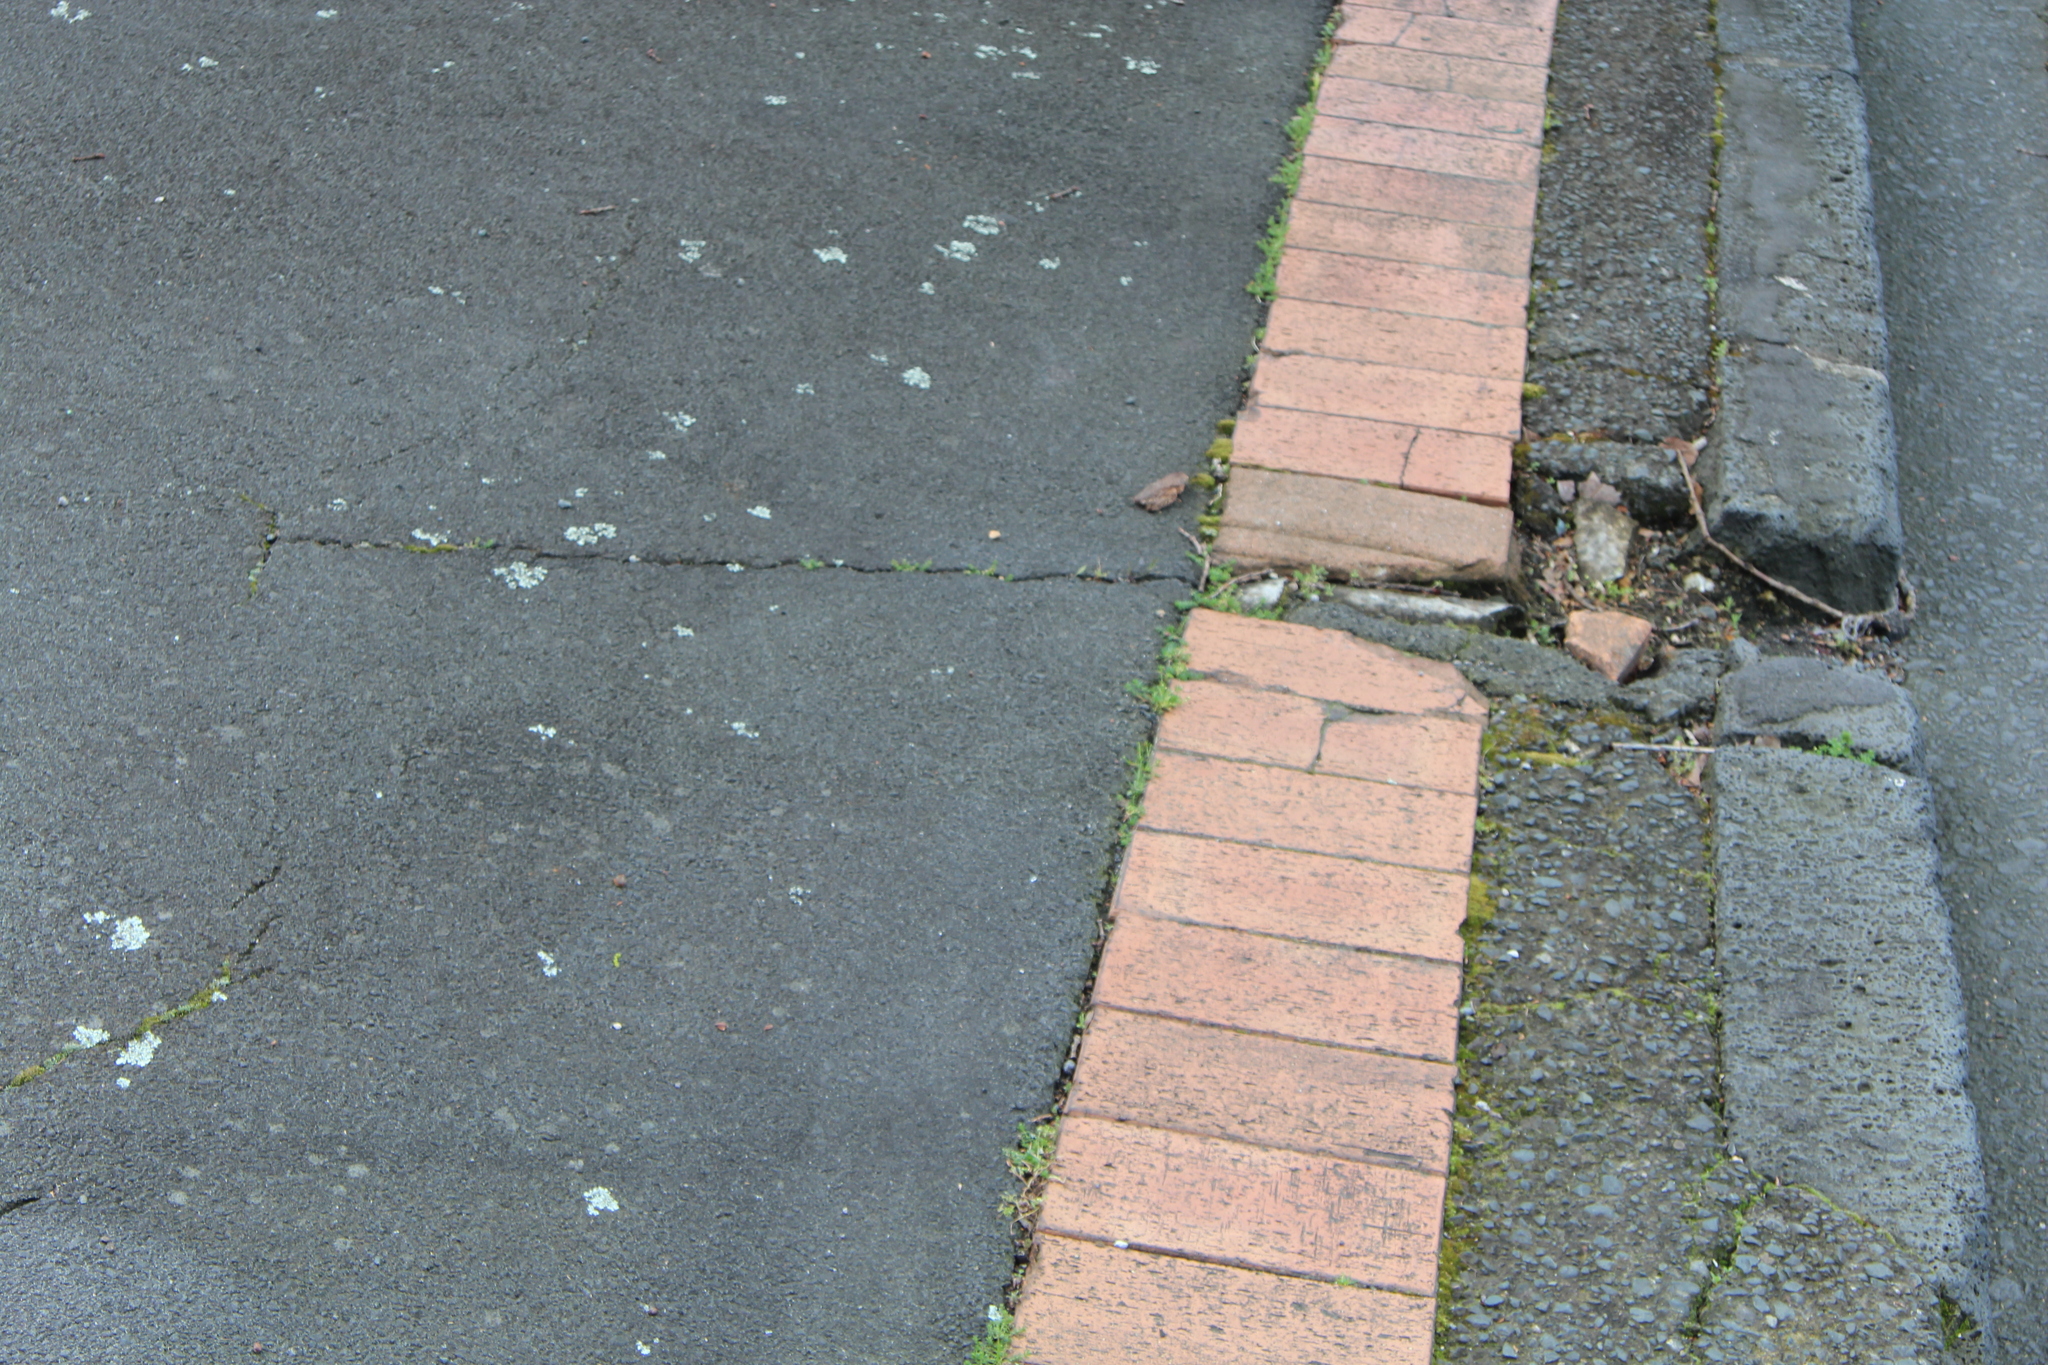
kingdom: Fungi
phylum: Ascomycota
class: Lecanoromycetes
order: Lecanorales
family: Parmeliaceae
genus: Xanthoparmelia
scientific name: Xanthoparmelia scabrosa
